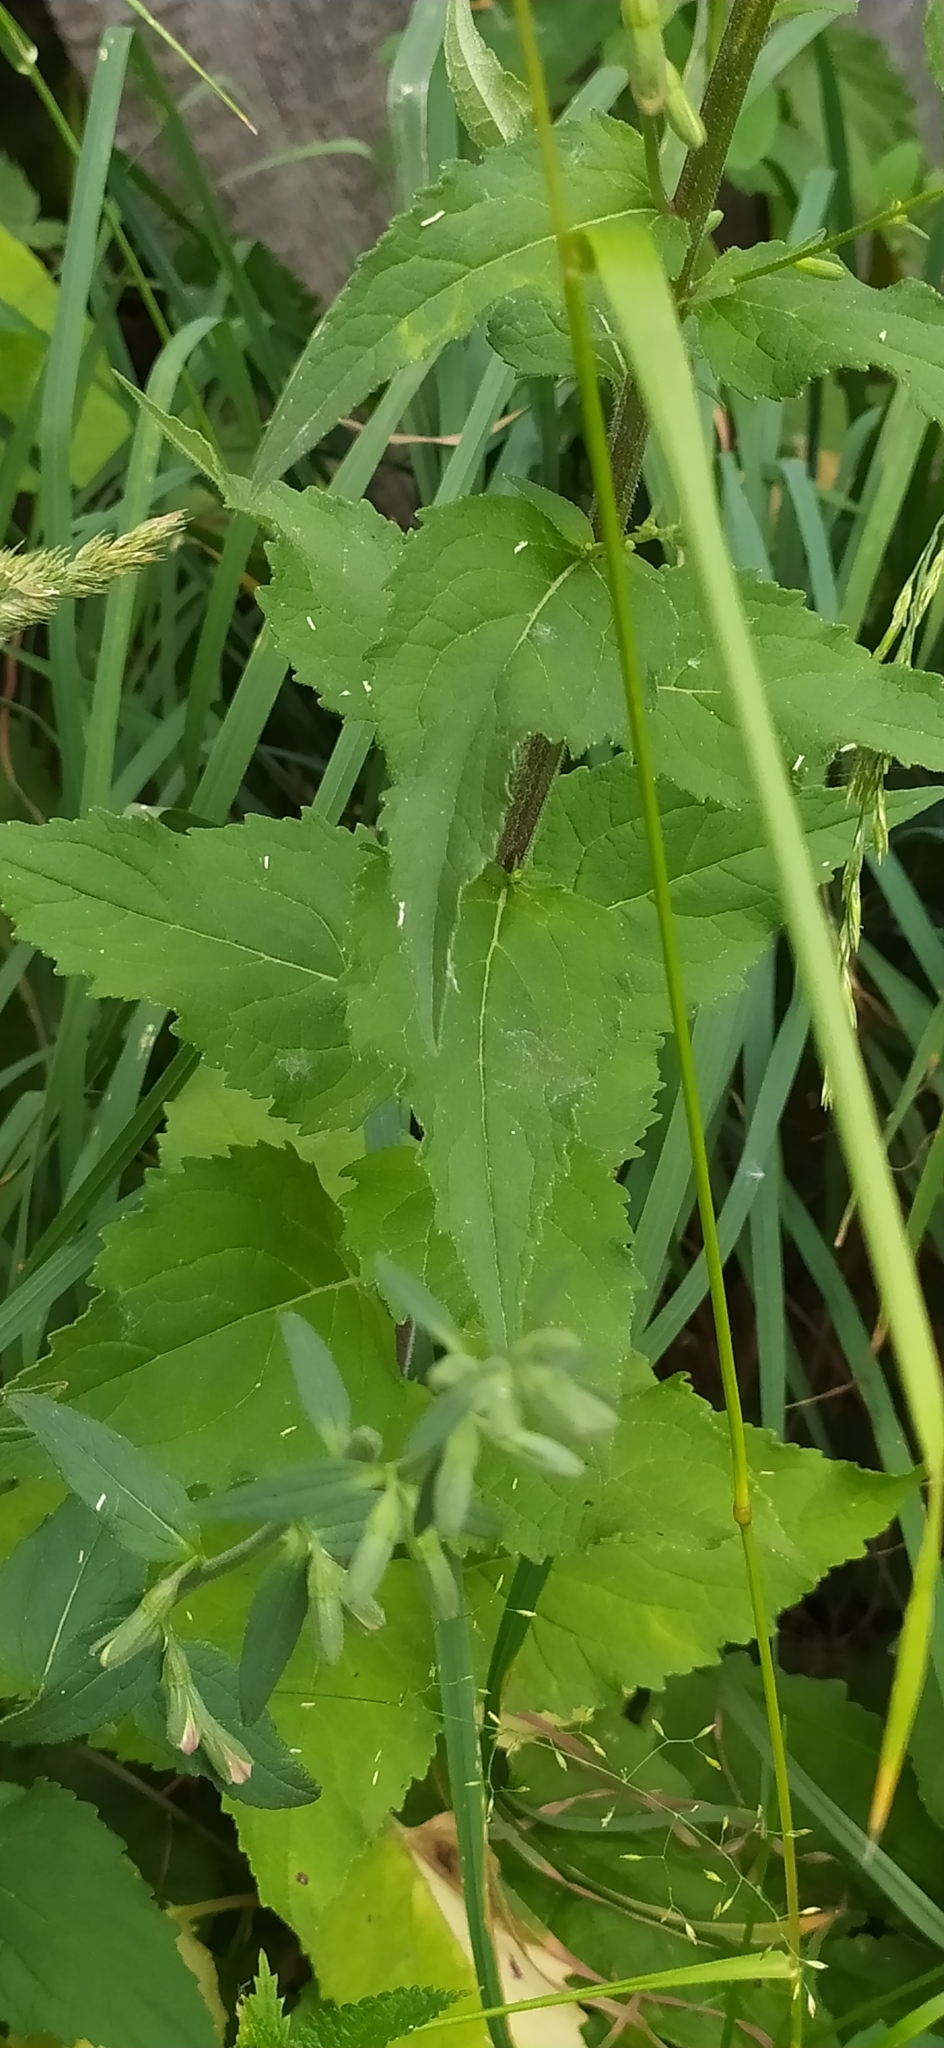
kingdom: Plantae
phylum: Tracheophyta
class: Magnoliopsida
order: Asterales
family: Campanulaceae
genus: Campanula
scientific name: Campanula rapunculoides
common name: Creeping bellflower
